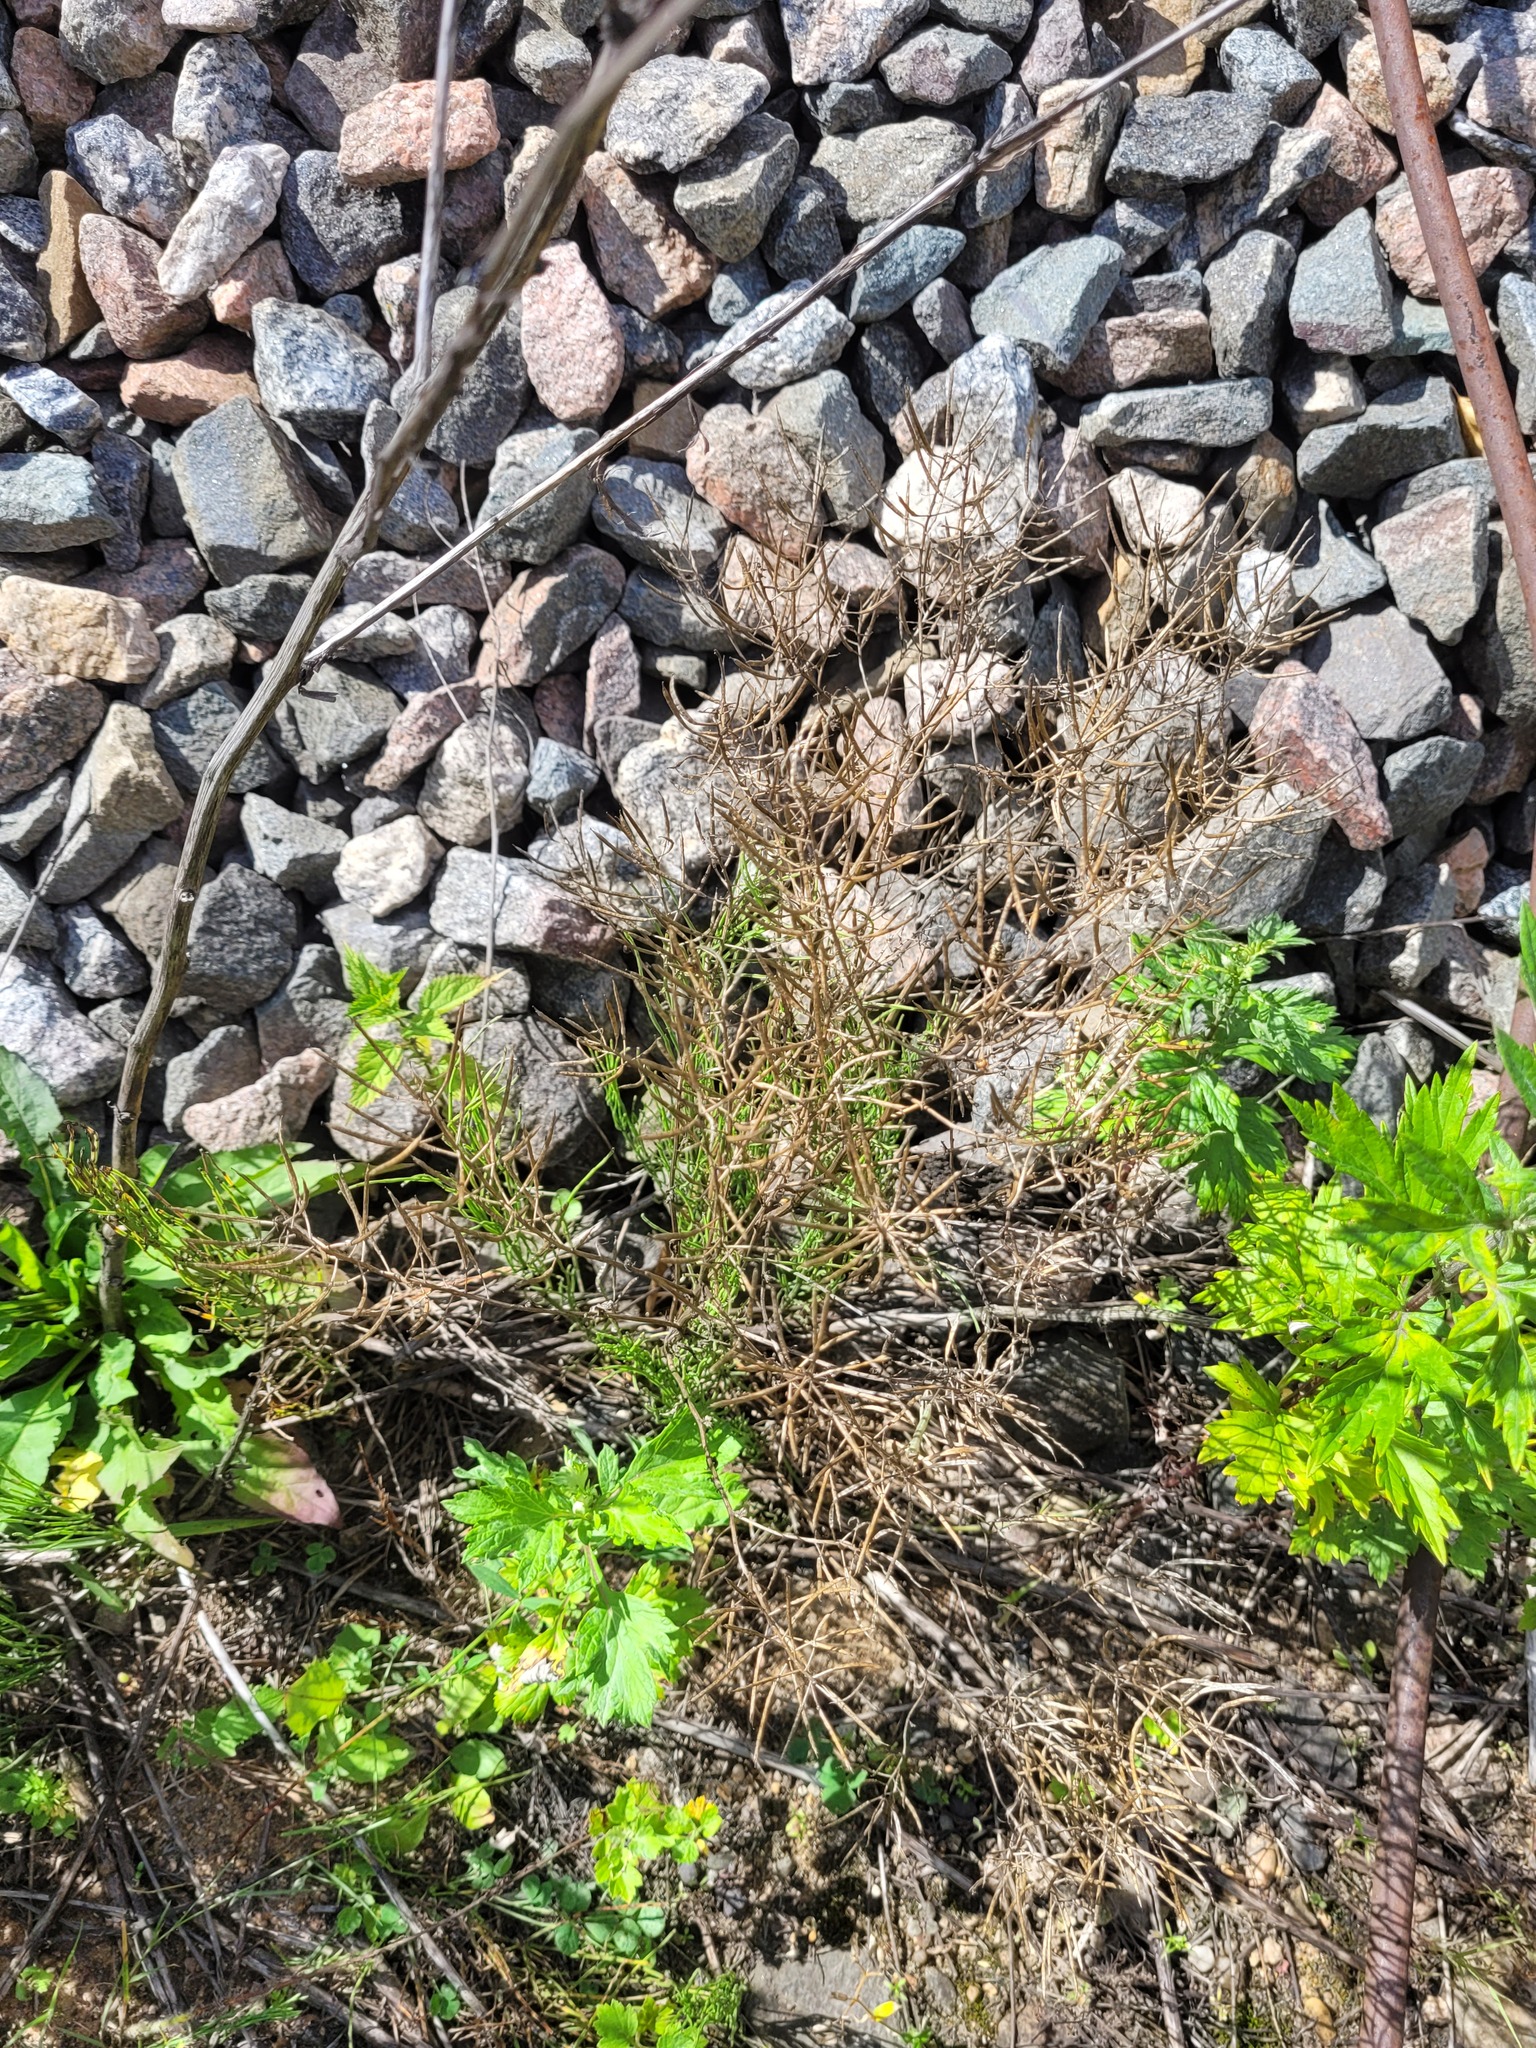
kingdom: Plantae
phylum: Tracheophyta
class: Magnoliopsida
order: Brassicales
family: Brassicaceae
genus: Barbarea
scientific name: Barbarea vulgaris
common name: Cressy-greens
